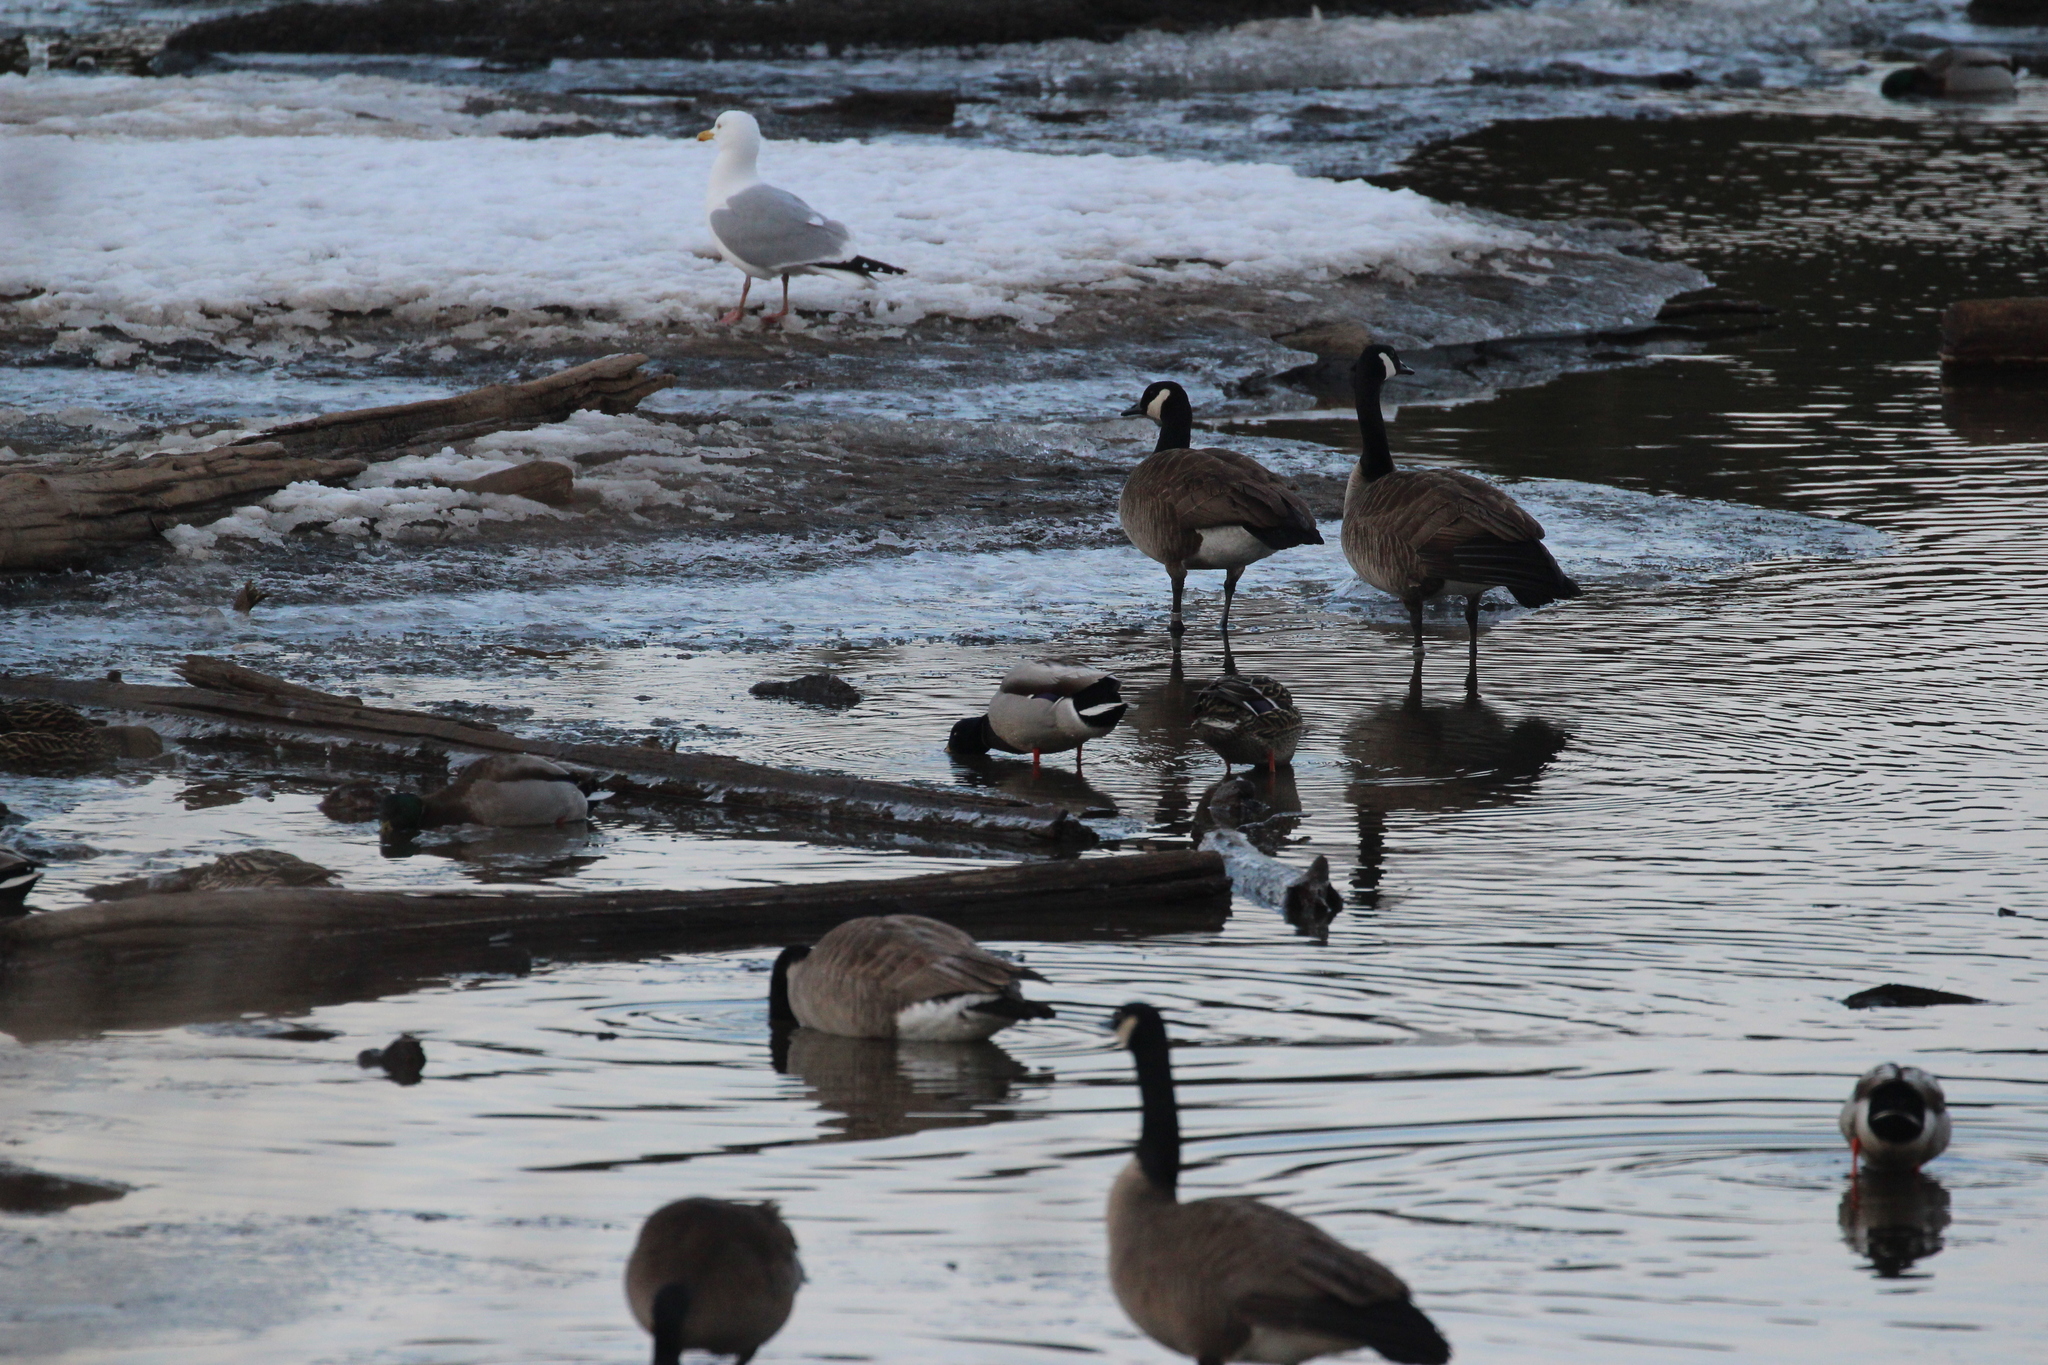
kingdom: Animalia
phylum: Chordata
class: Aves
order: Charadriiformes
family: Laridae
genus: Larus
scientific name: Larus argentatus
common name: Herring gull
